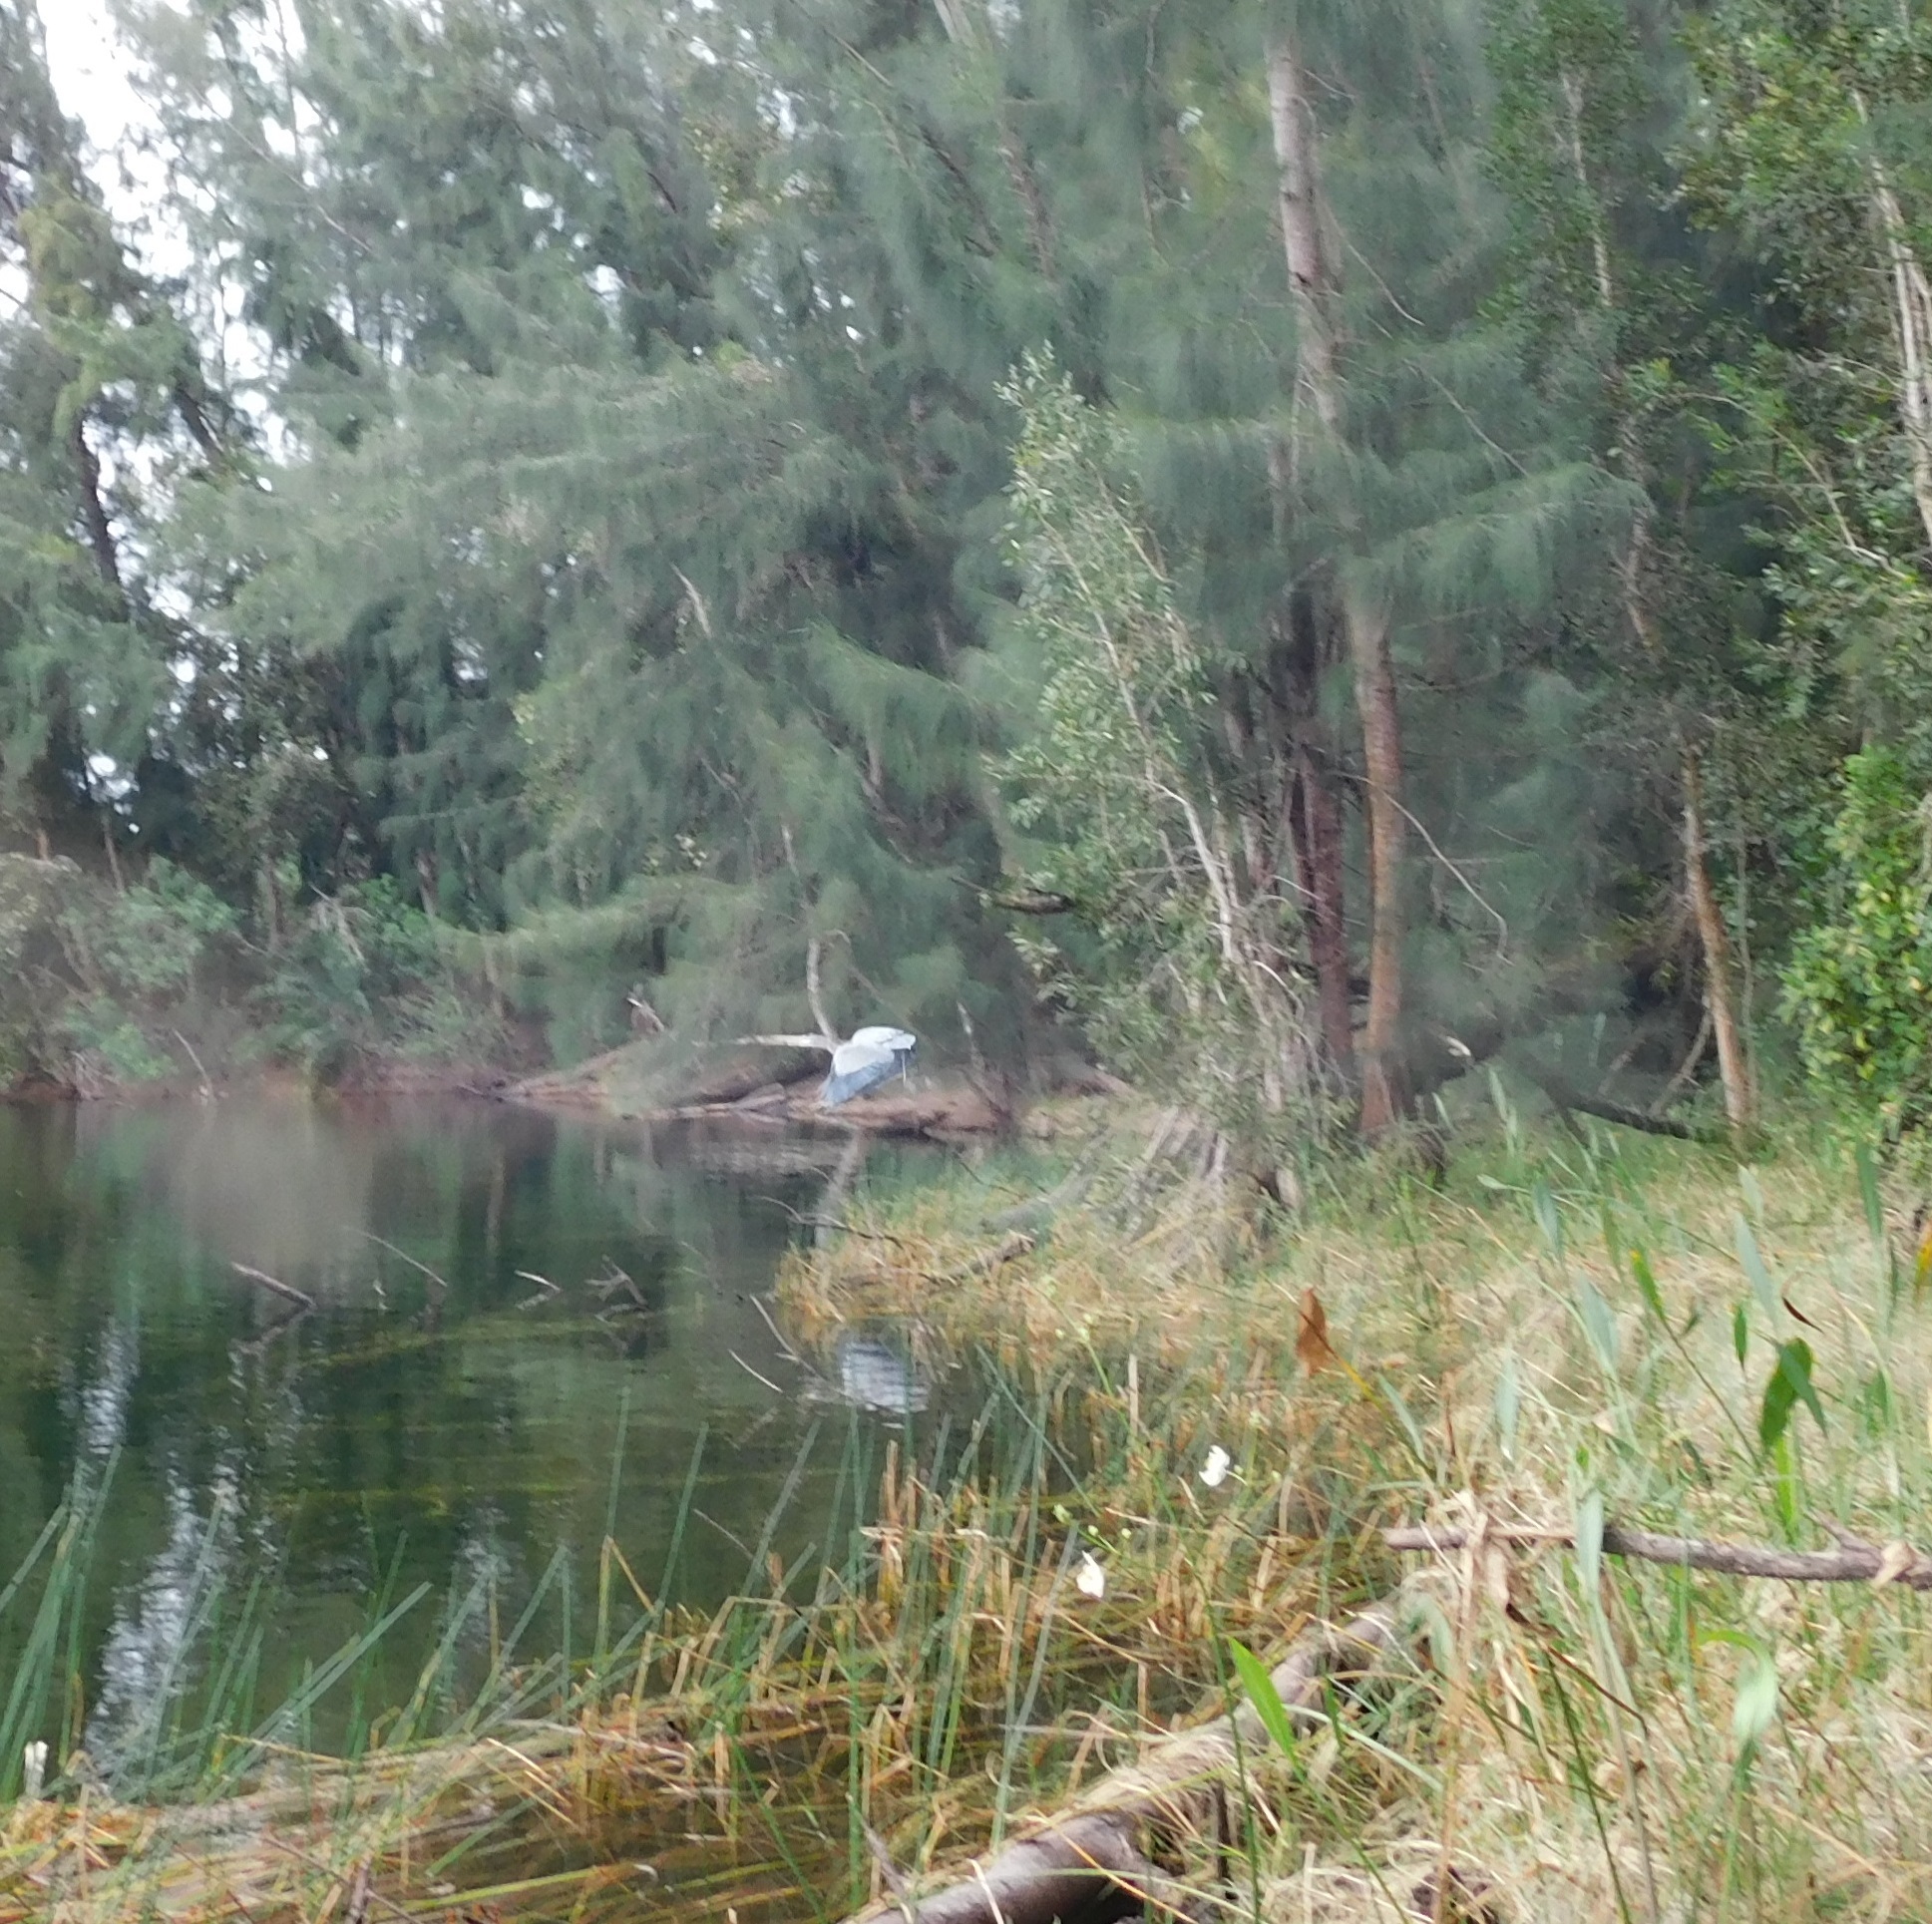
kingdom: Animalia
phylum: Chordata
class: Aves
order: Pelecaniformes
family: Ardeidae
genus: Ardea
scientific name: Ardea herodias
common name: Great blue heron
